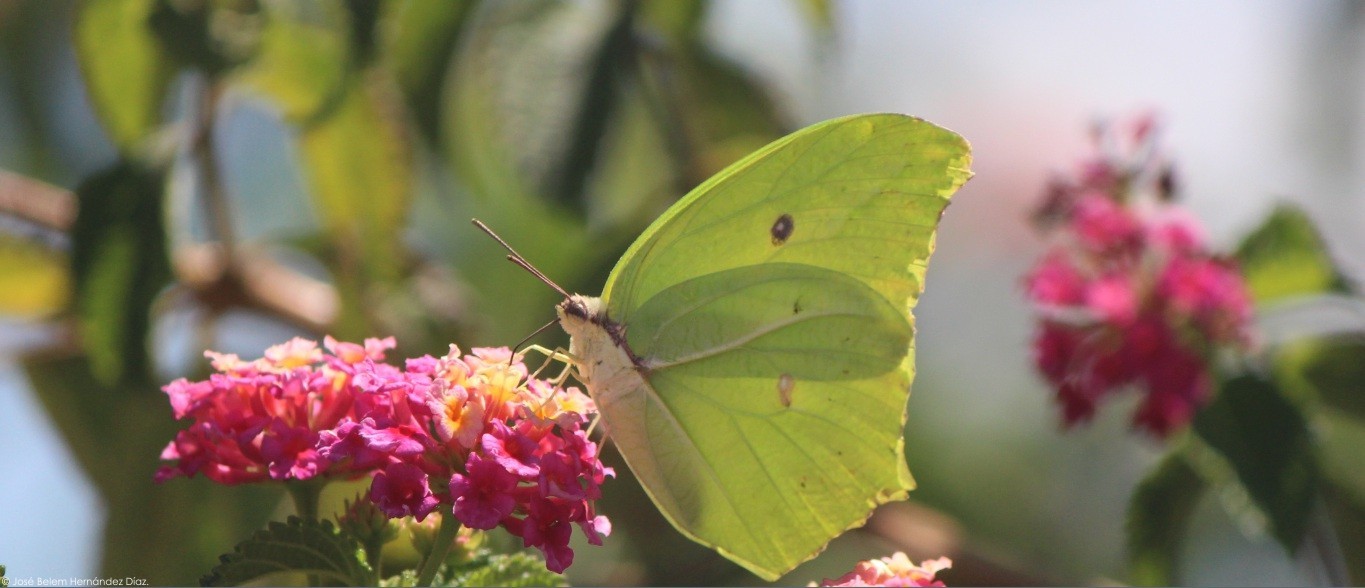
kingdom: Animalia
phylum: Arthropoda
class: Insecta
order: Lepidoptera
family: Pieridae
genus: Anteos
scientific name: Anteos maerula
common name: Angled sulphur
